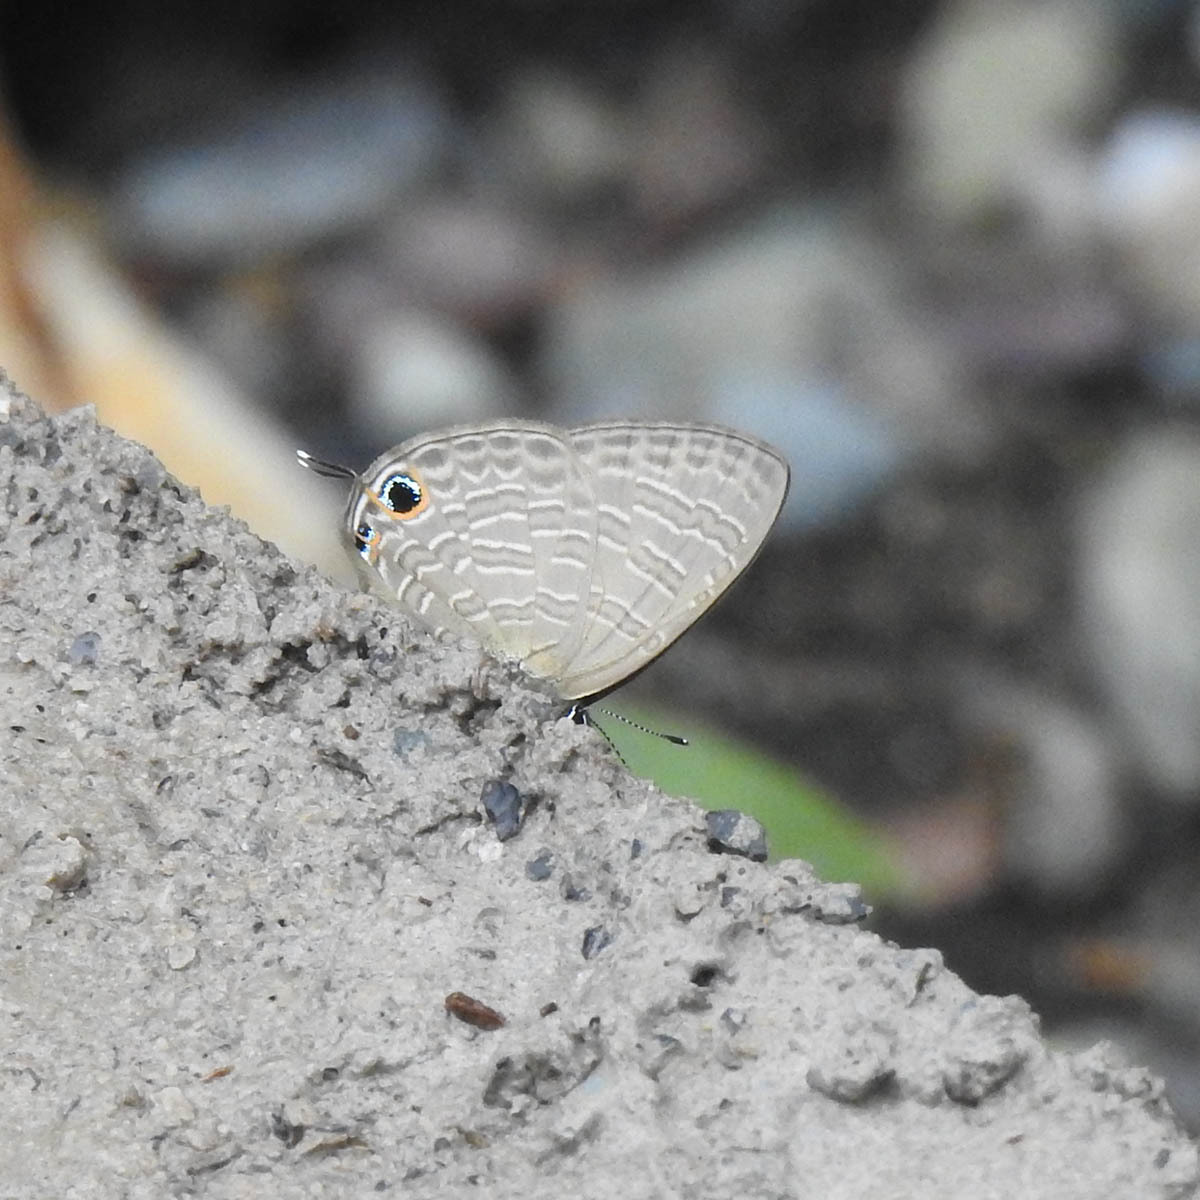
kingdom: Animalia
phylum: Arthropoda
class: Insecta
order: Lepidoptera
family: Lycaenidae
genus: Nacaduba
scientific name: Nacaduba berenice
